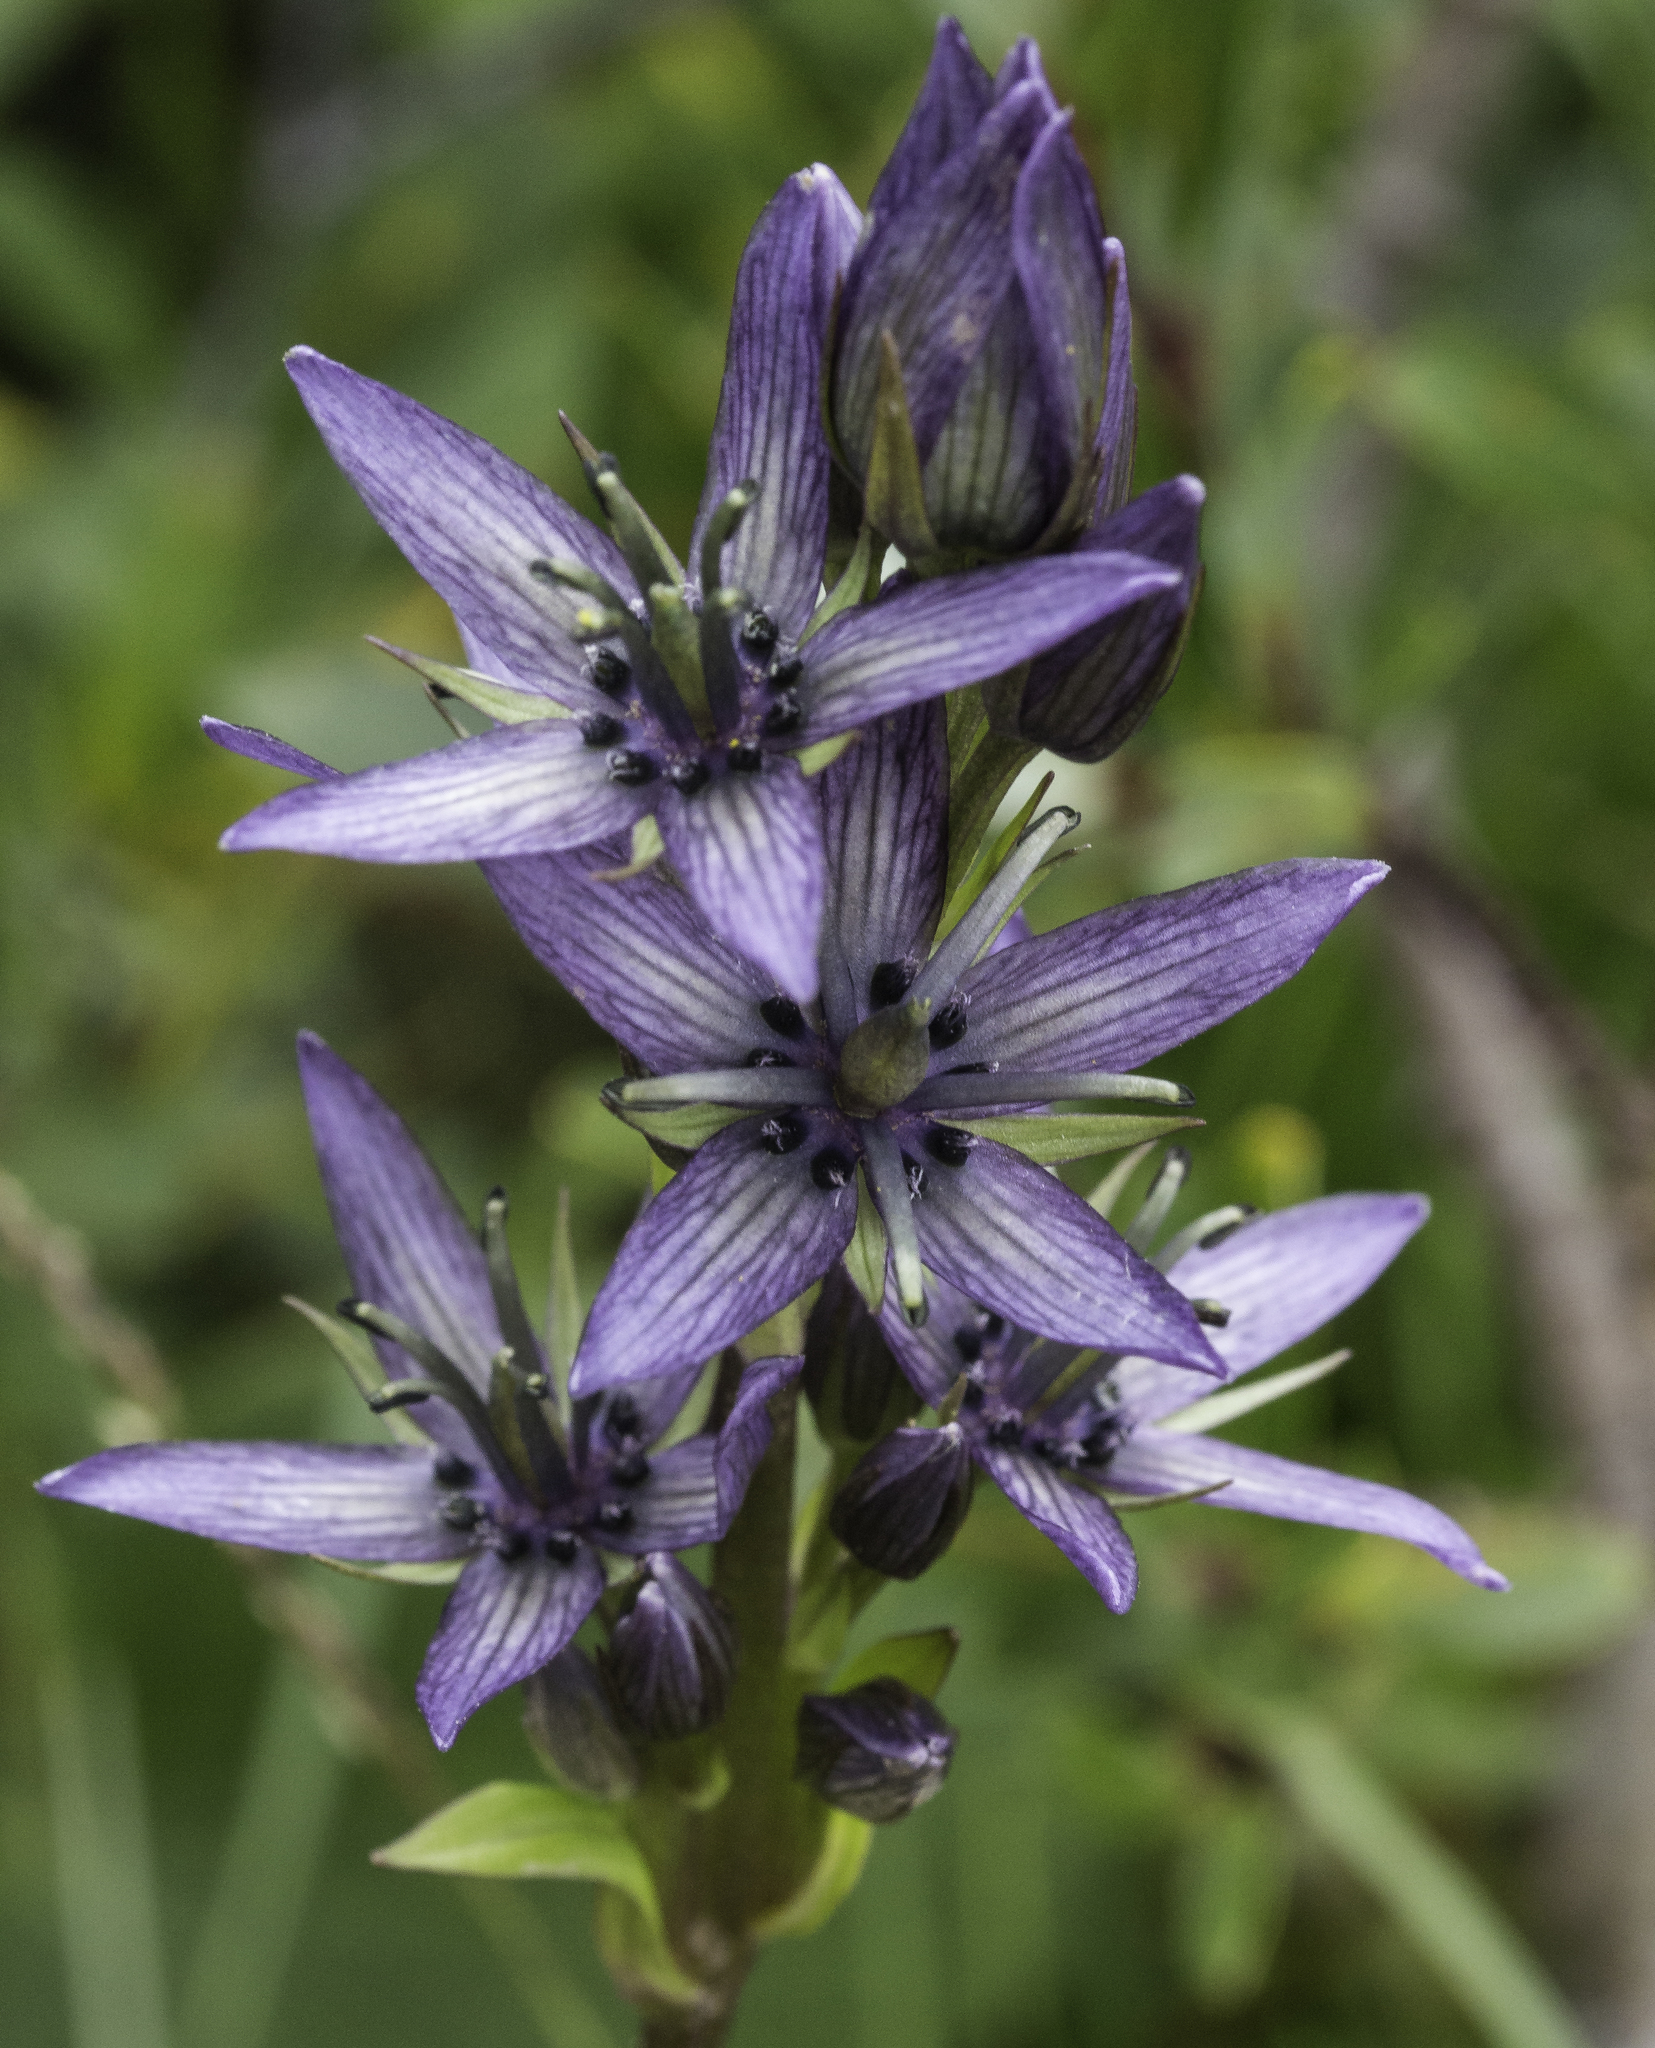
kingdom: Plantae
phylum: Tracheophyta
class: Magnoliopsida
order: Gentianales
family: Gentianaceae
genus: Swertia
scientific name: Swertia perennis
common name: Alpine bog swertia
